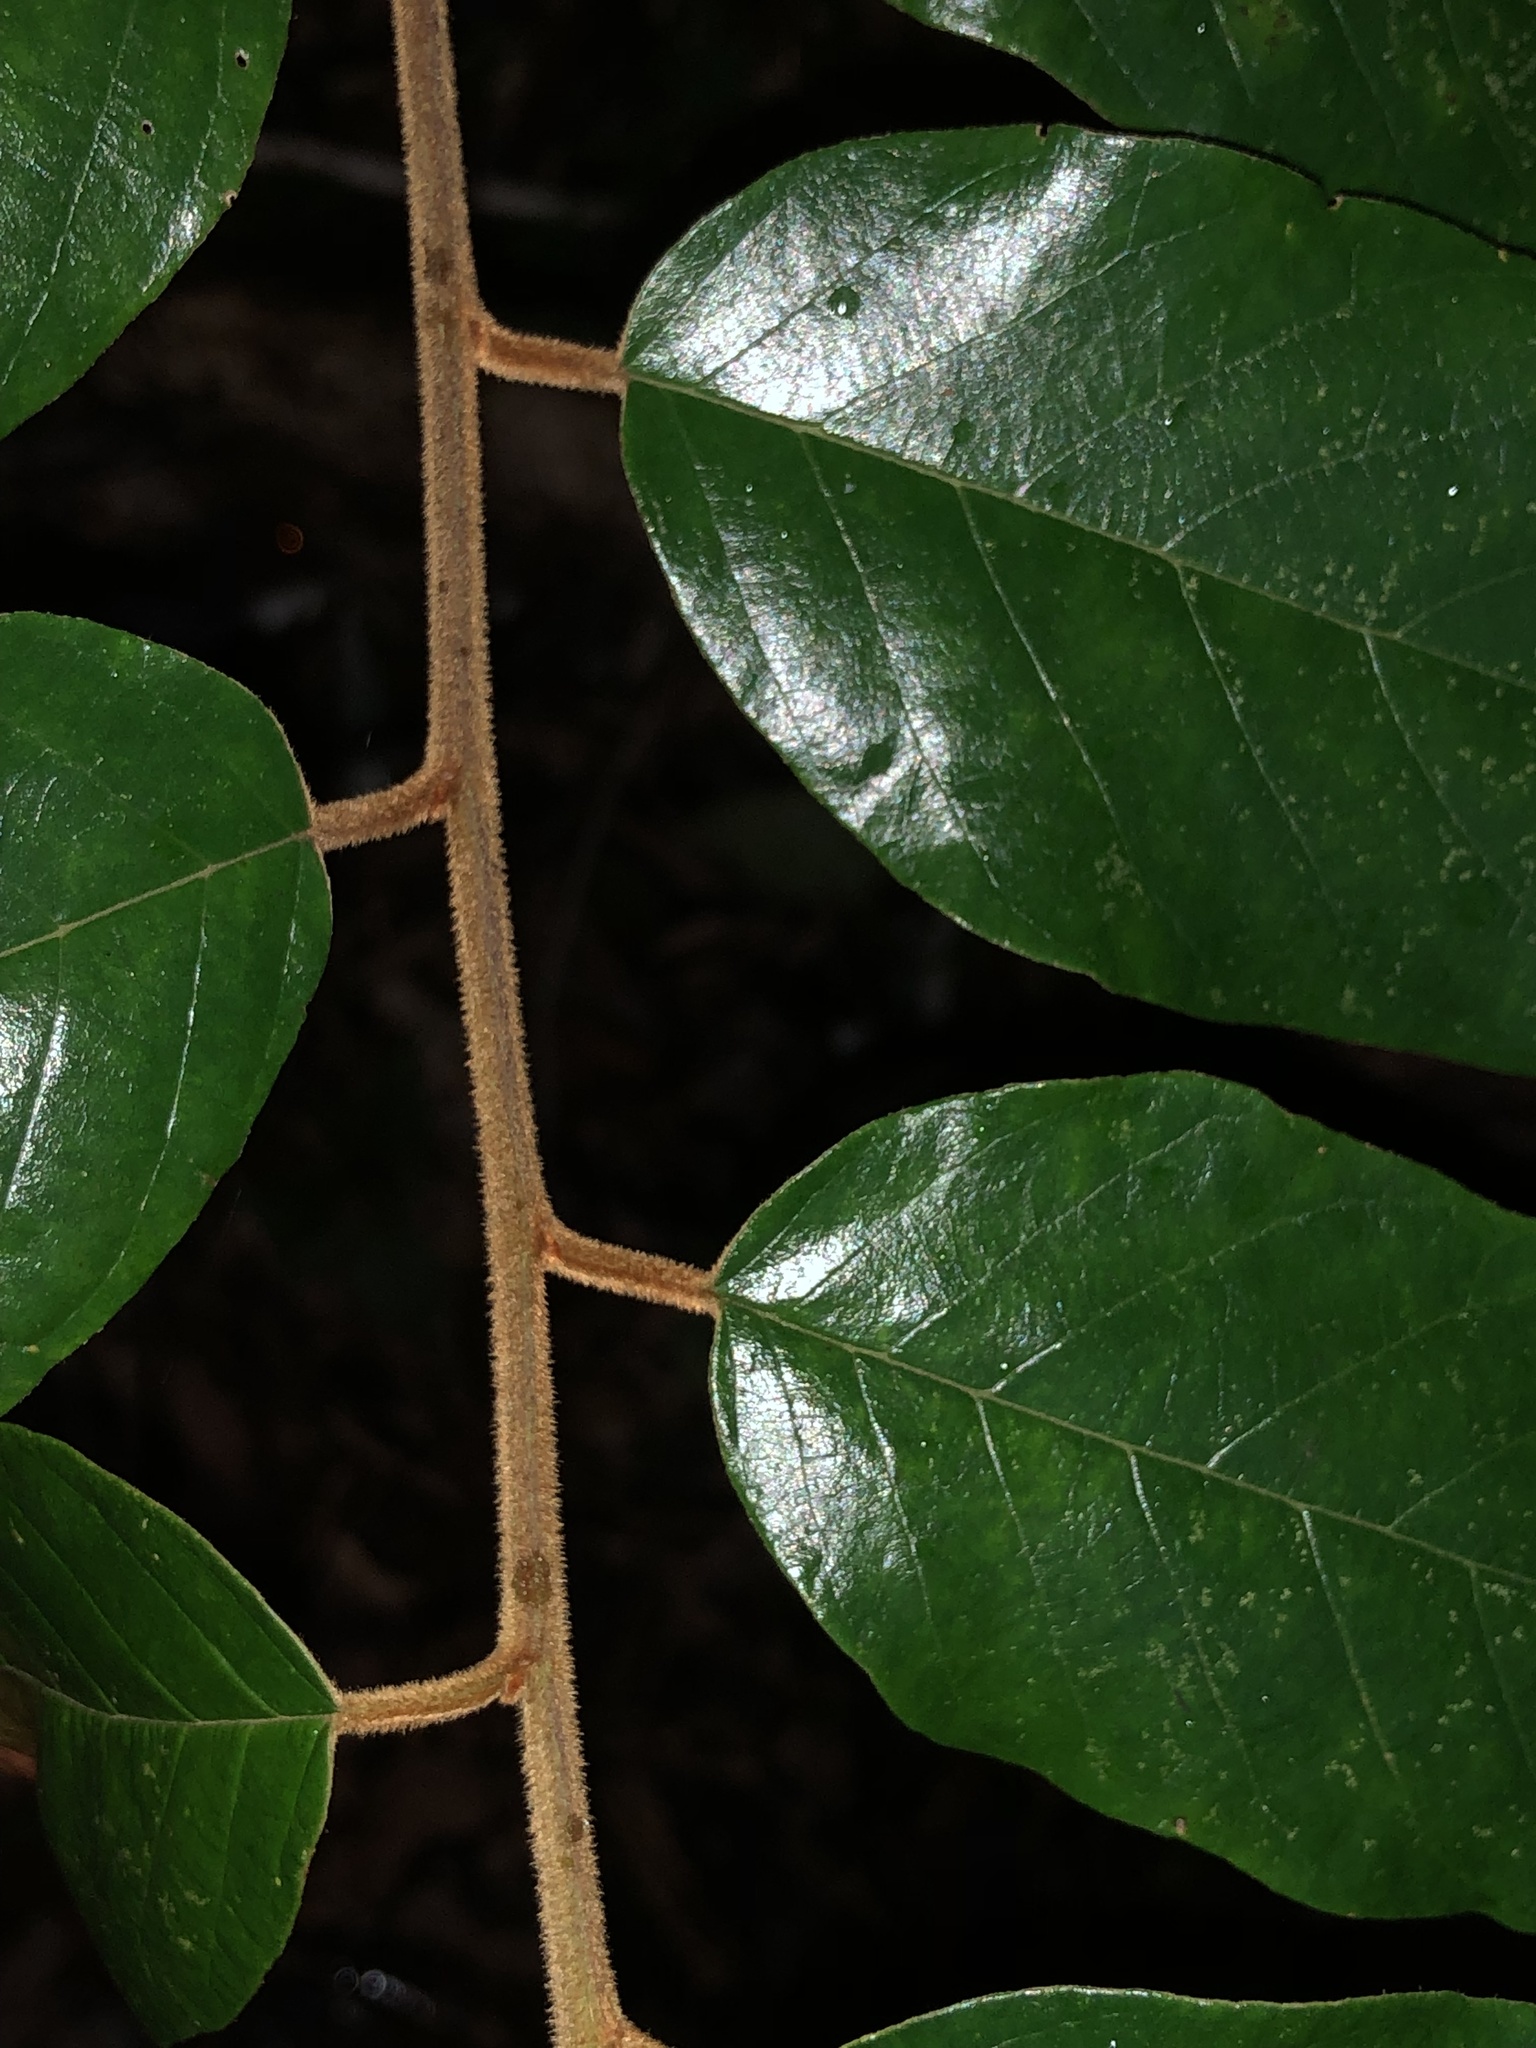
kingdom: Plantae
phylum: Tracheophyta
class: Magnoliopsida
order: Rosales
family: Rhamnaceae
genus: Alphitonia
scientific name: Alphitonia excelsa
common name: Red ash
